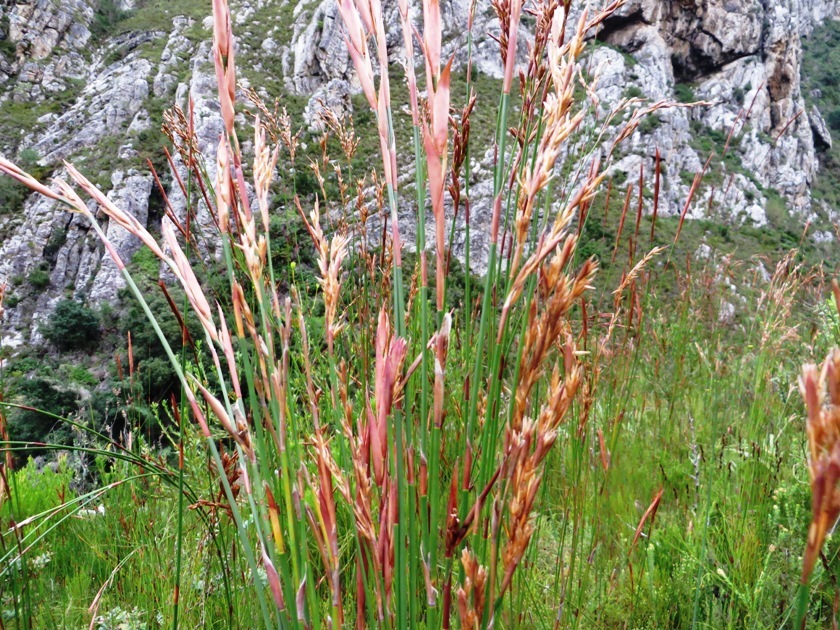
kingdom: Plantae
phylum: Tracheophyta
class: Liliopsida
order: Poales
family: Restionaceae
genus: Restio
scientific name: Restio dispar
